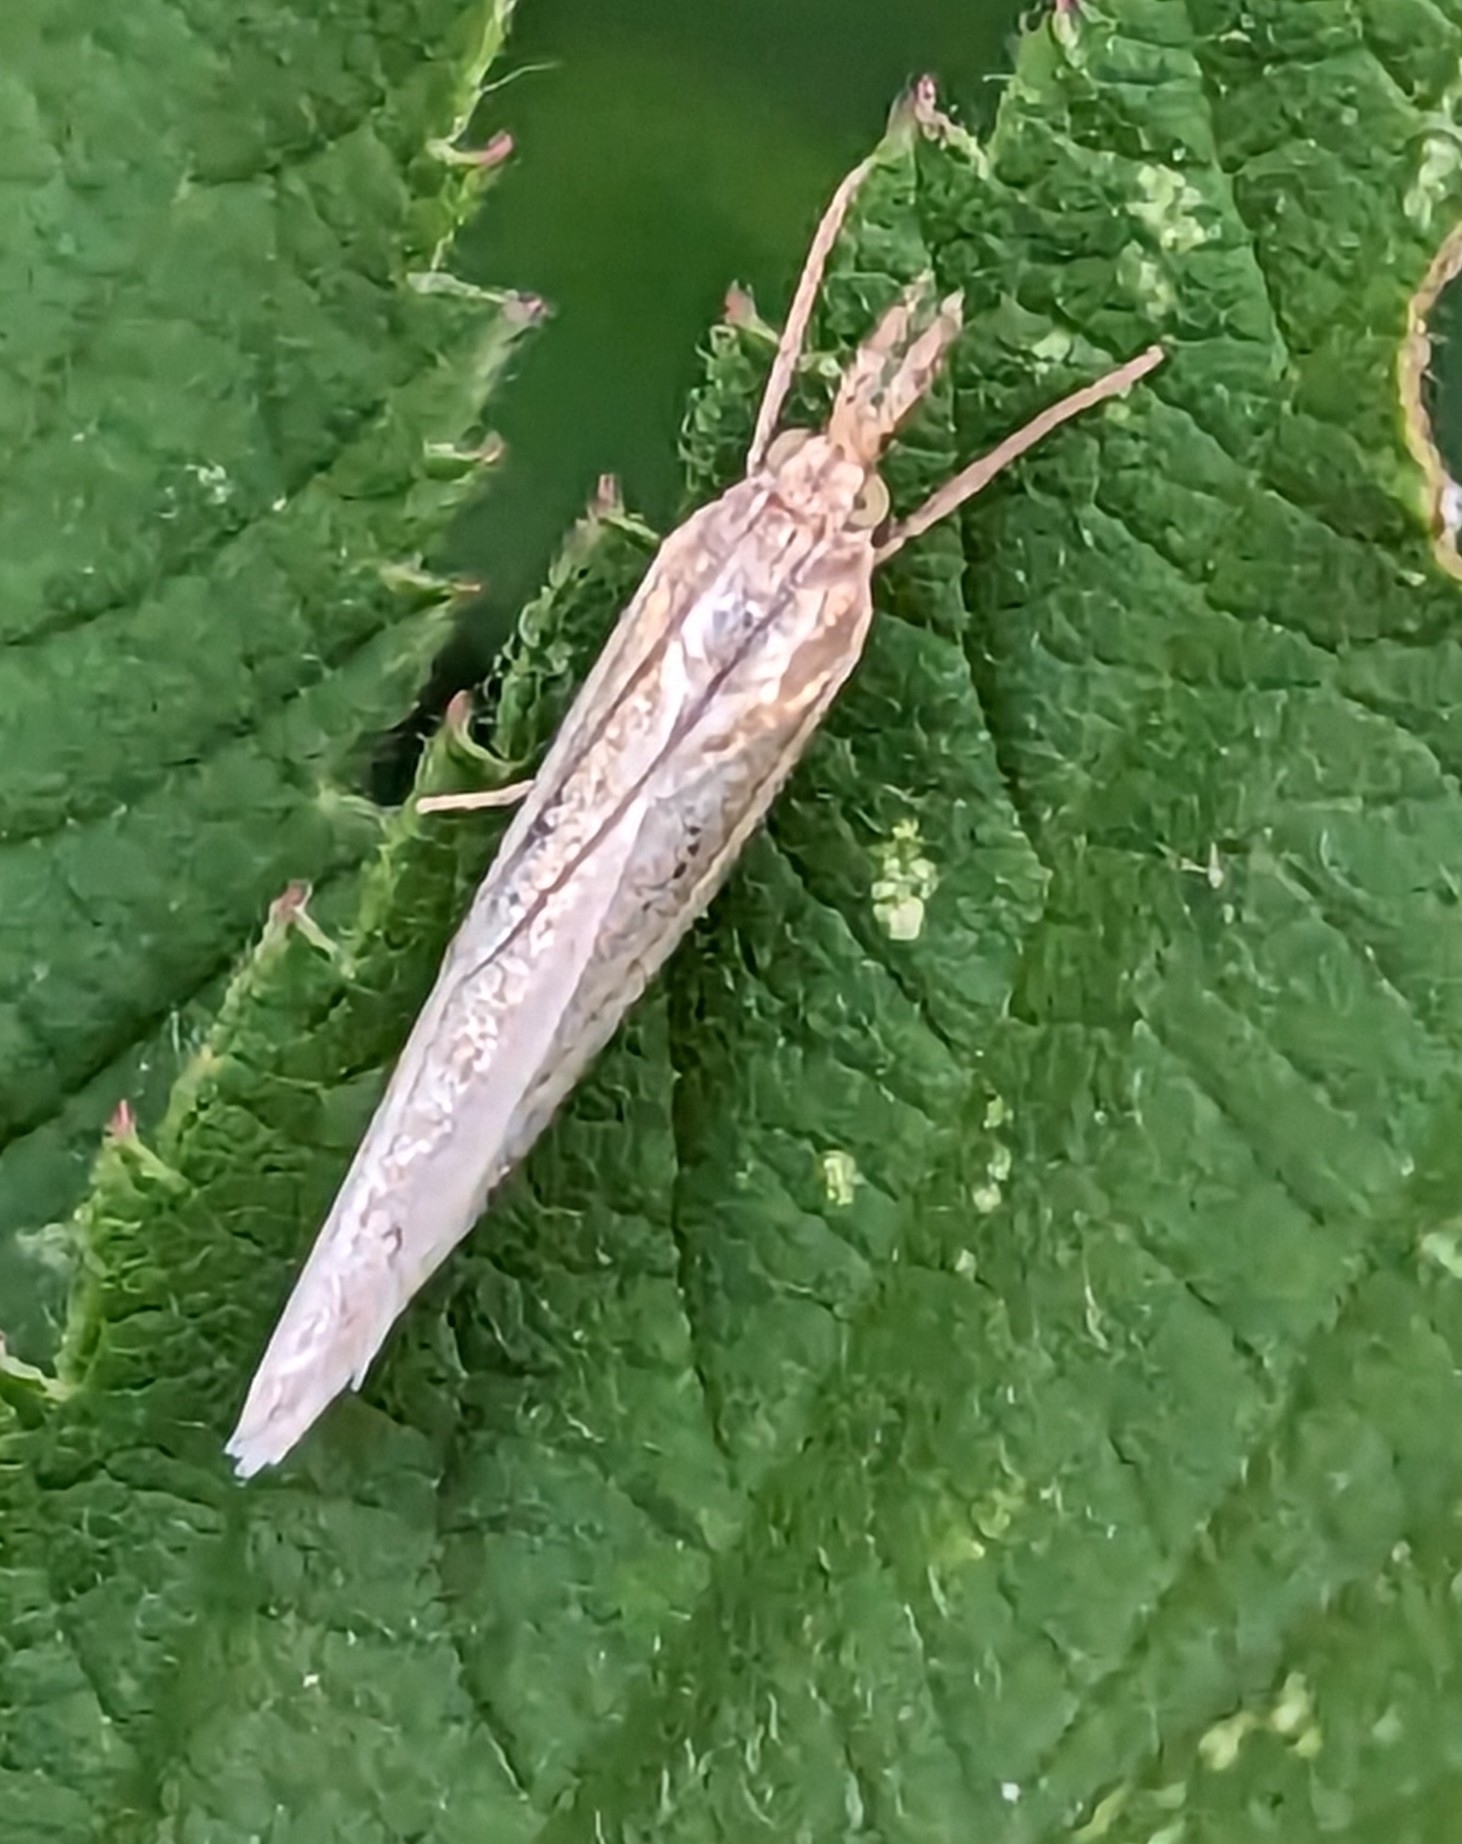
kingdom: Animalia
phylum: Arthropoda
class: Insecta
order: Lepidoptera
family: Crambidae
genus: Agriphila
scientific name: Agriphila tristellus
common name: Common grass-veneer
